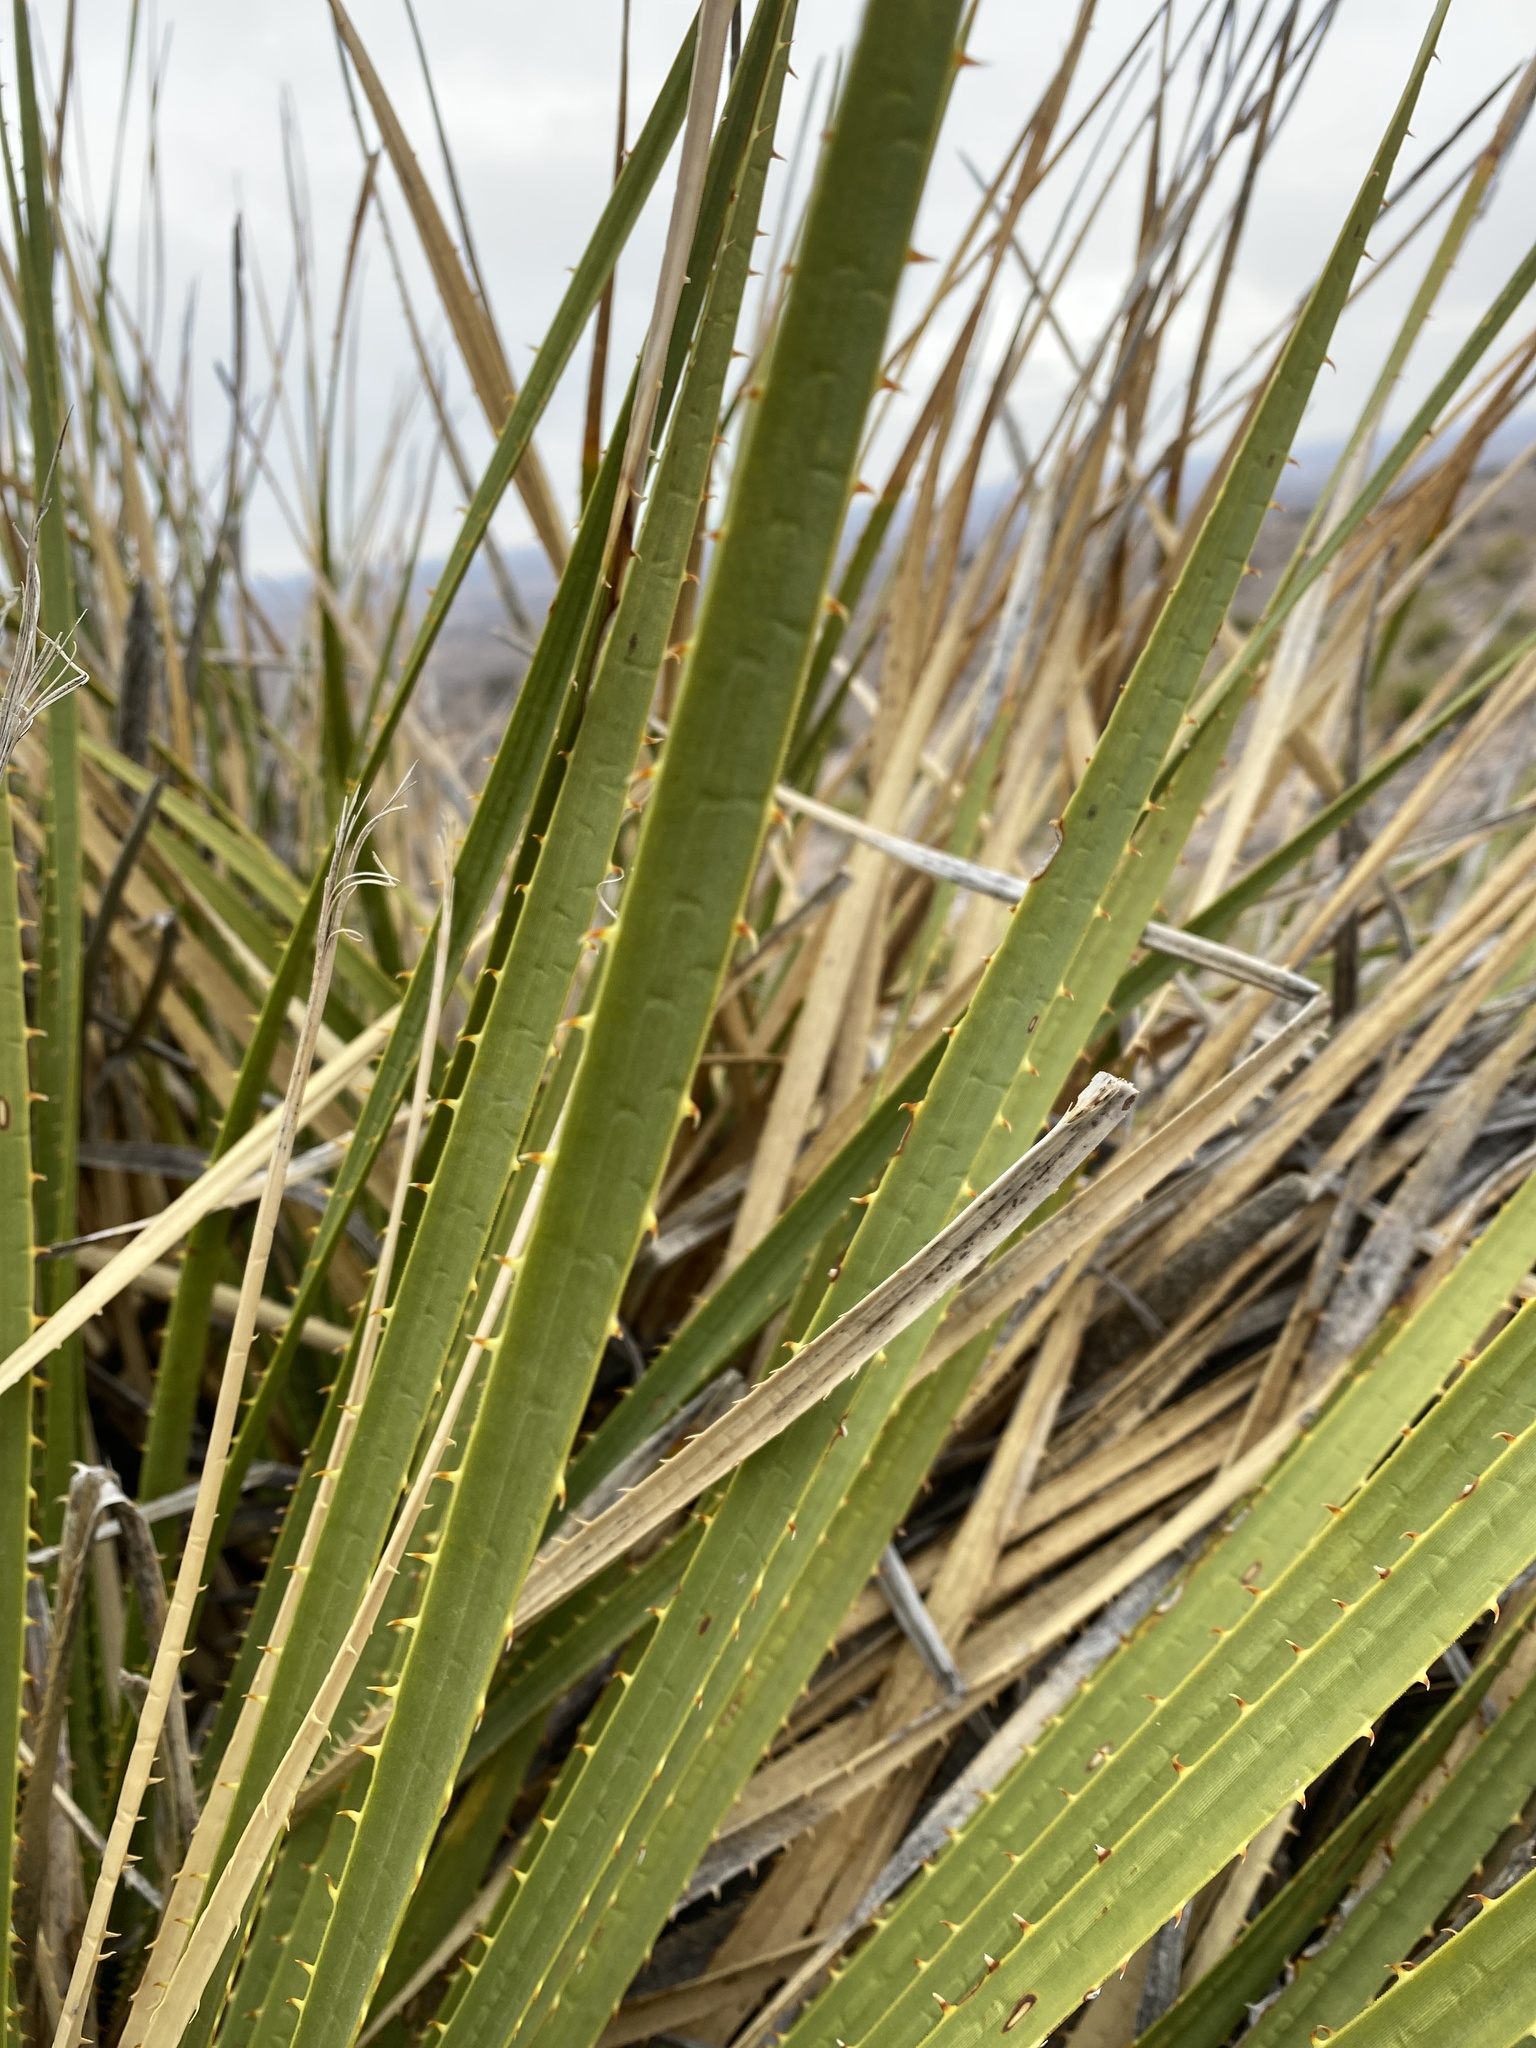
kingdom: Plantae
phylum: Tracheophyta
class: Liliopsida
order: Asparagales
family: Asparagaceae
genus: Dasylirion
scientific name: Dasylirion leiophyllum
